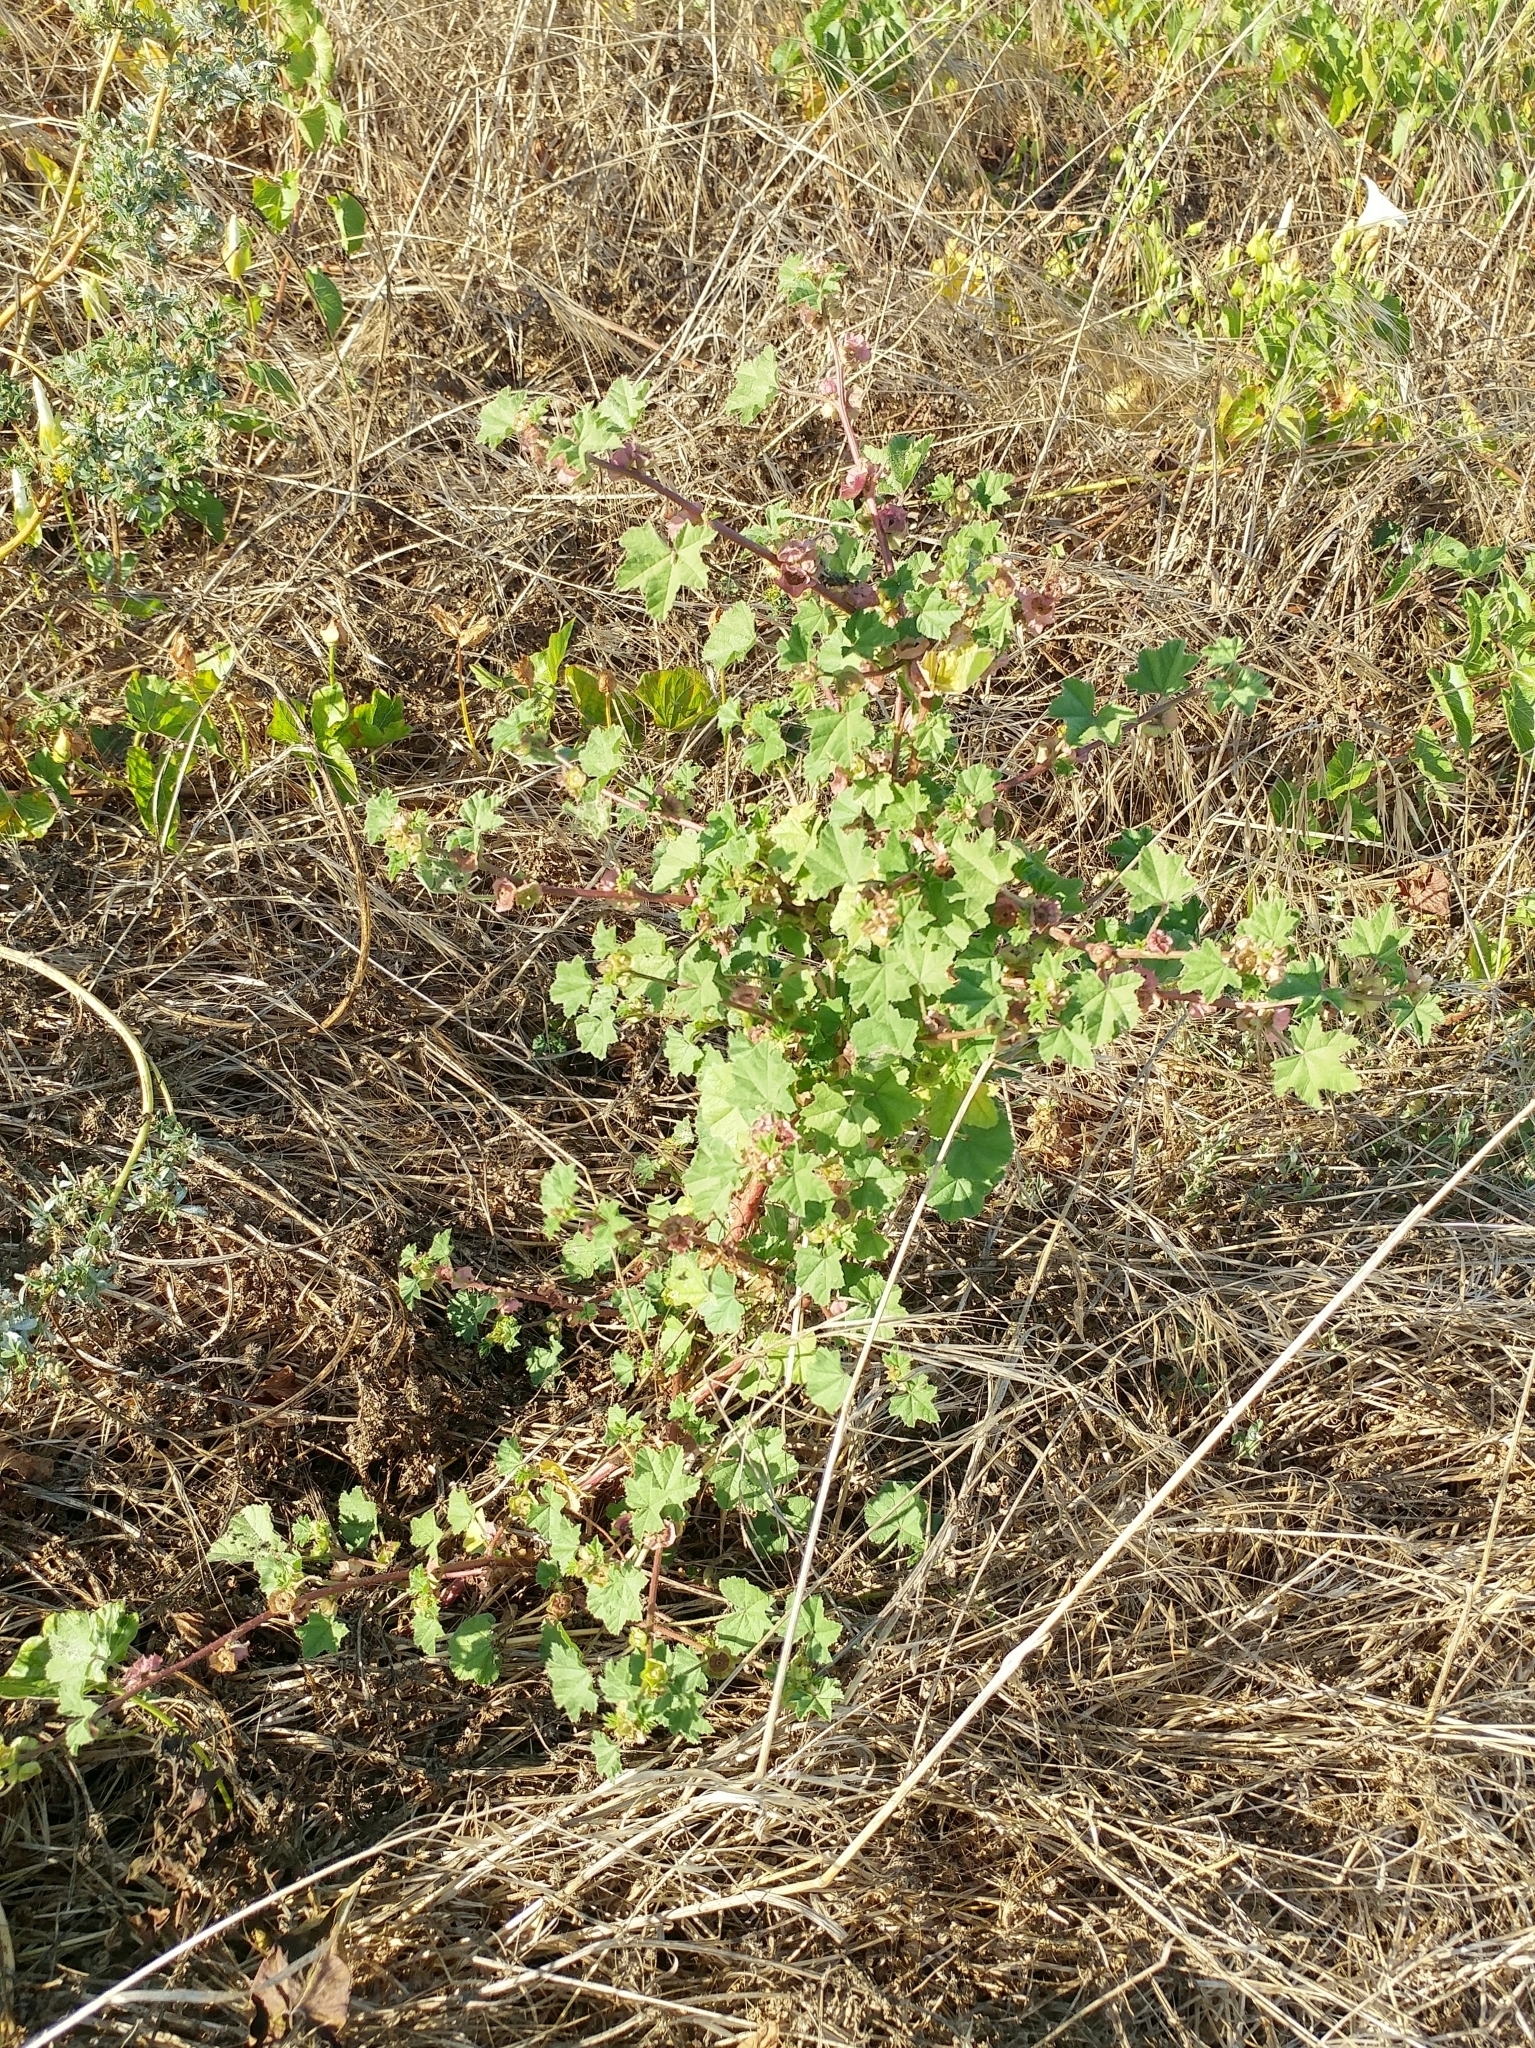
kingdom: Plantae
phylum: Tracheophyta
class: Magnoliopsida
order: Malvales
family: Malvaceae
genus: Malva
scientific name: Malva parviflora
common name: Least mallow
